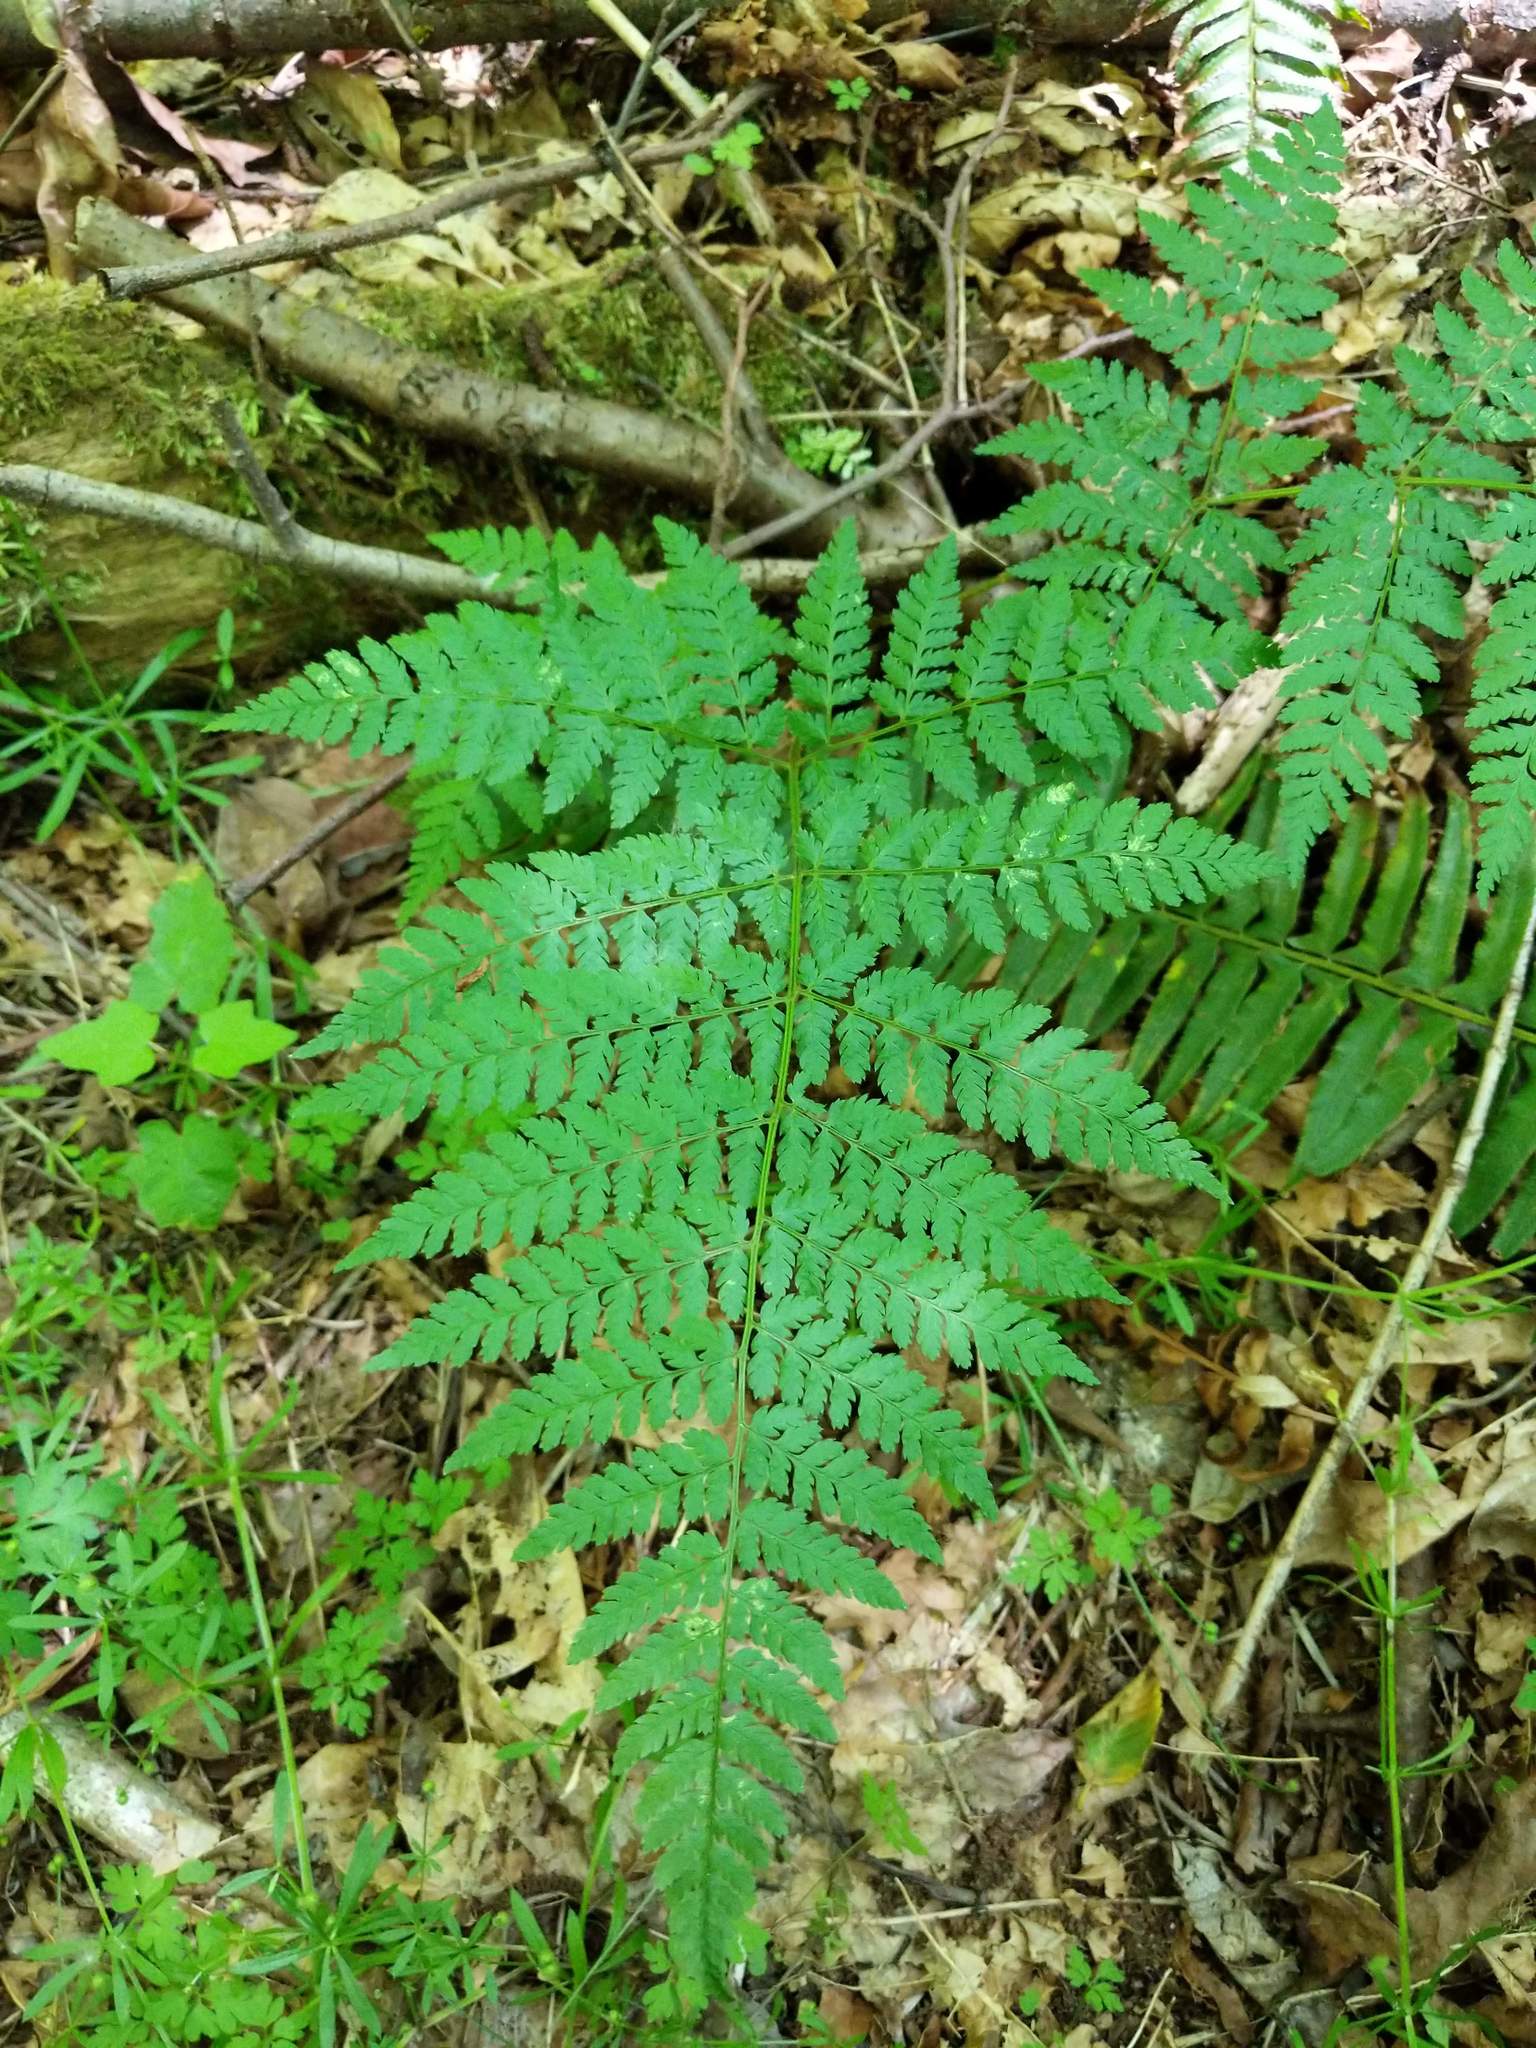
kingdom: Plantae
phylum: Tracheophyta
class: Polypodiopsida
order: Polypodiales
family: Dryopteridaceae
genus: Dryopteris
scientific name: Dryopteris expansa
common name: Northern buckler fern
